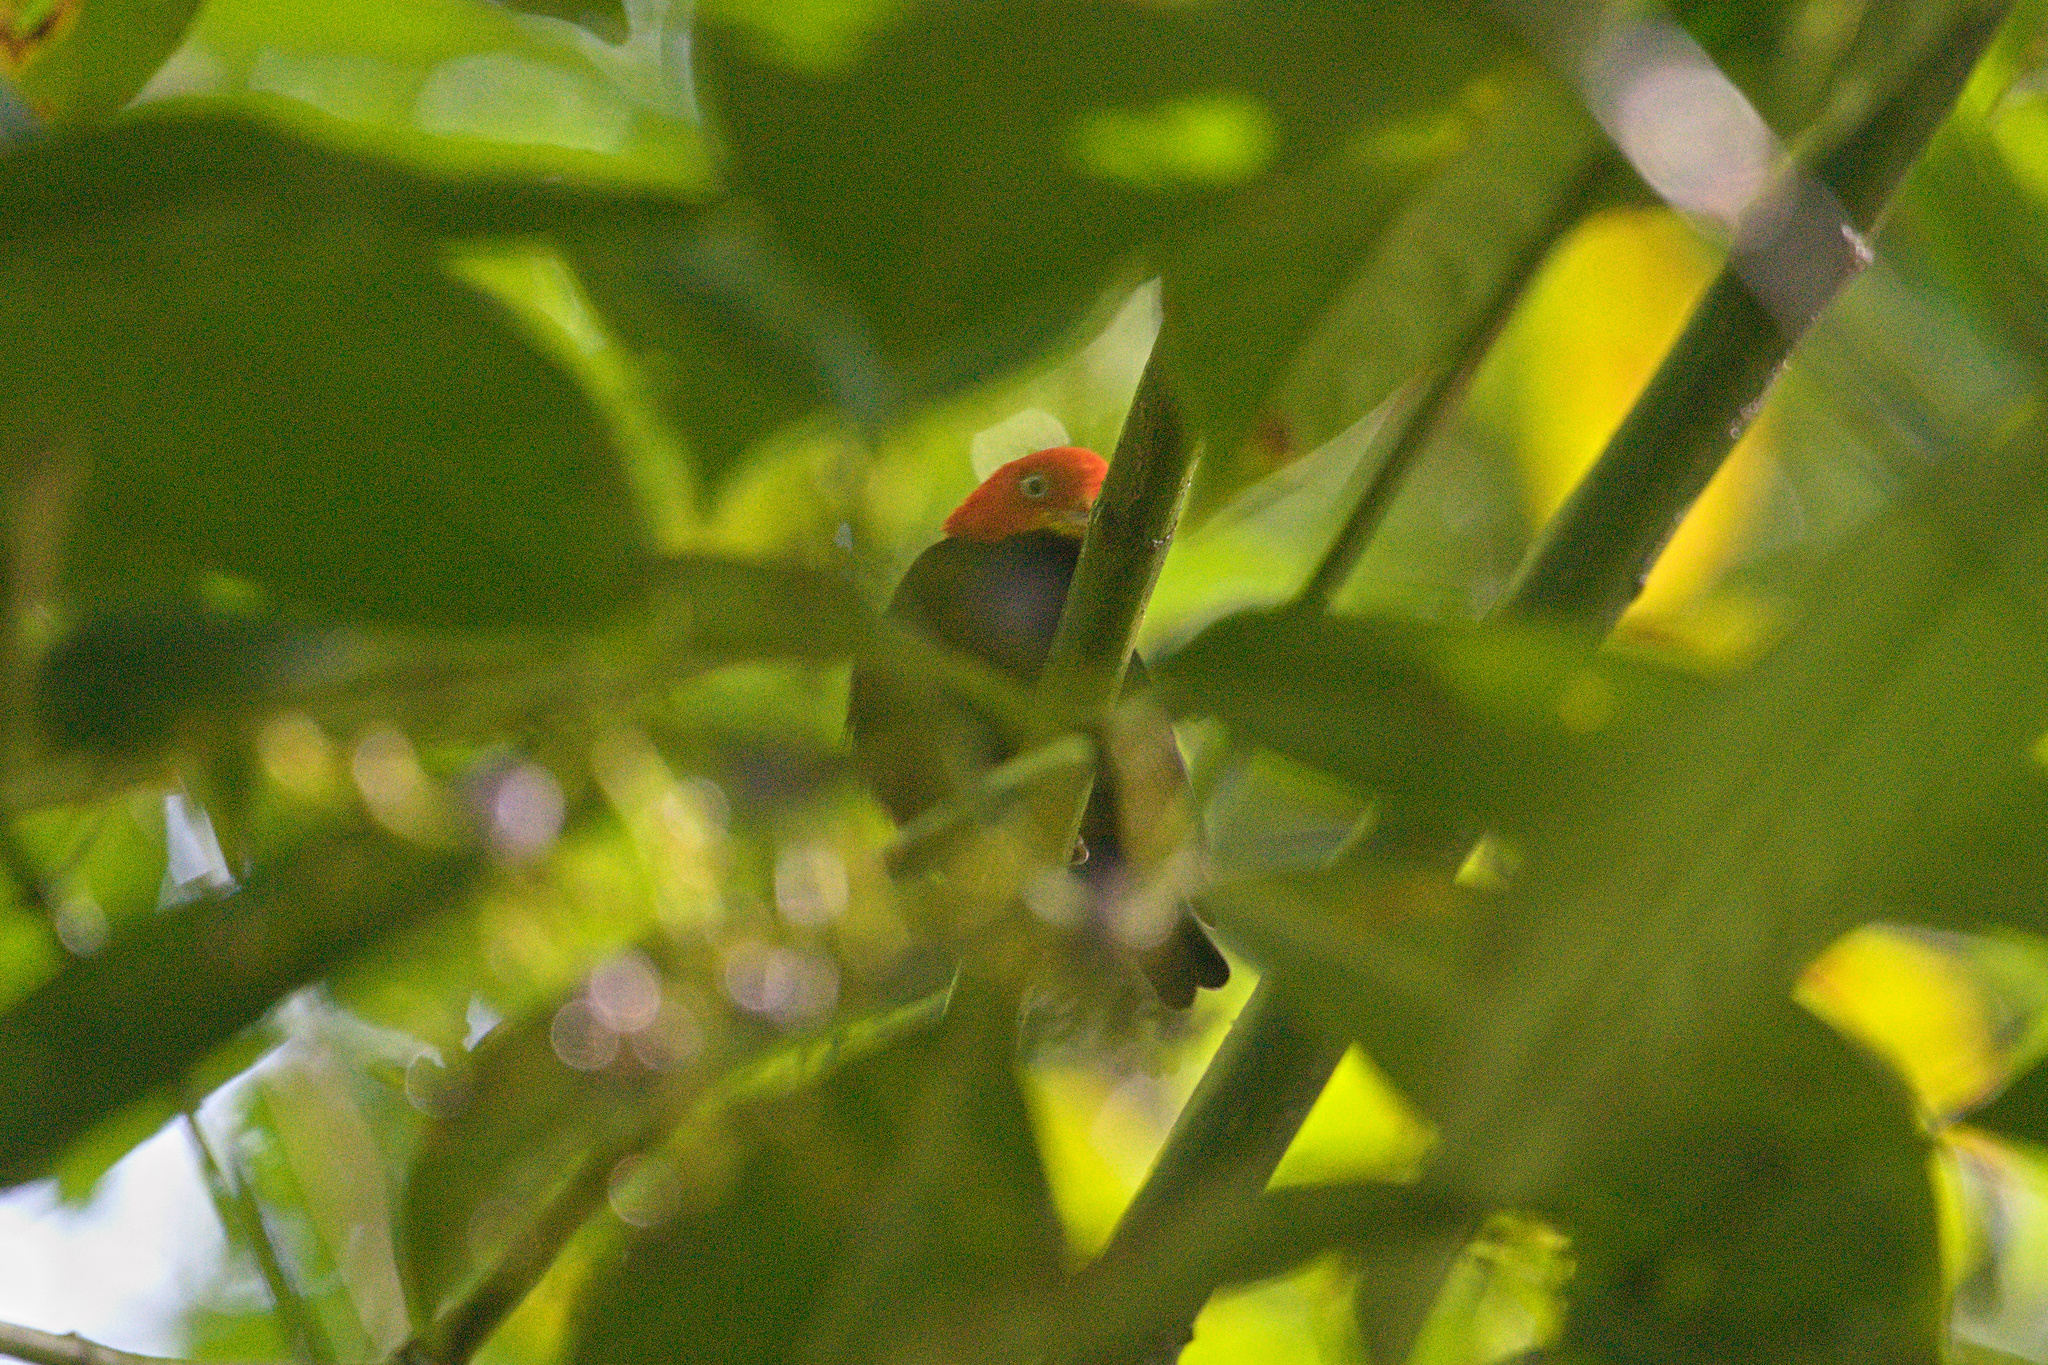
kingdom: Animalia
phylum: Chordata
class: Aves
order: Passeriformes
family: Pipridae
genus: Pipra
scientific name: Pipra mentalis
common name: Red-capped manakin
